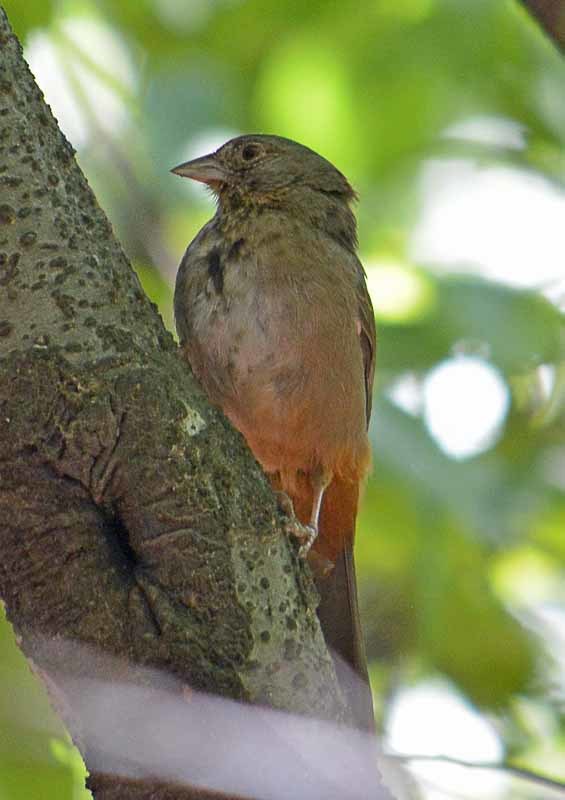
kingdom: Animalia
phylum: Chordata
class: Aves
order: Passeriformes
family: Passerellidae
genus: Melozone
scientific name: Melozone fusca
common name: Canyon towhee
